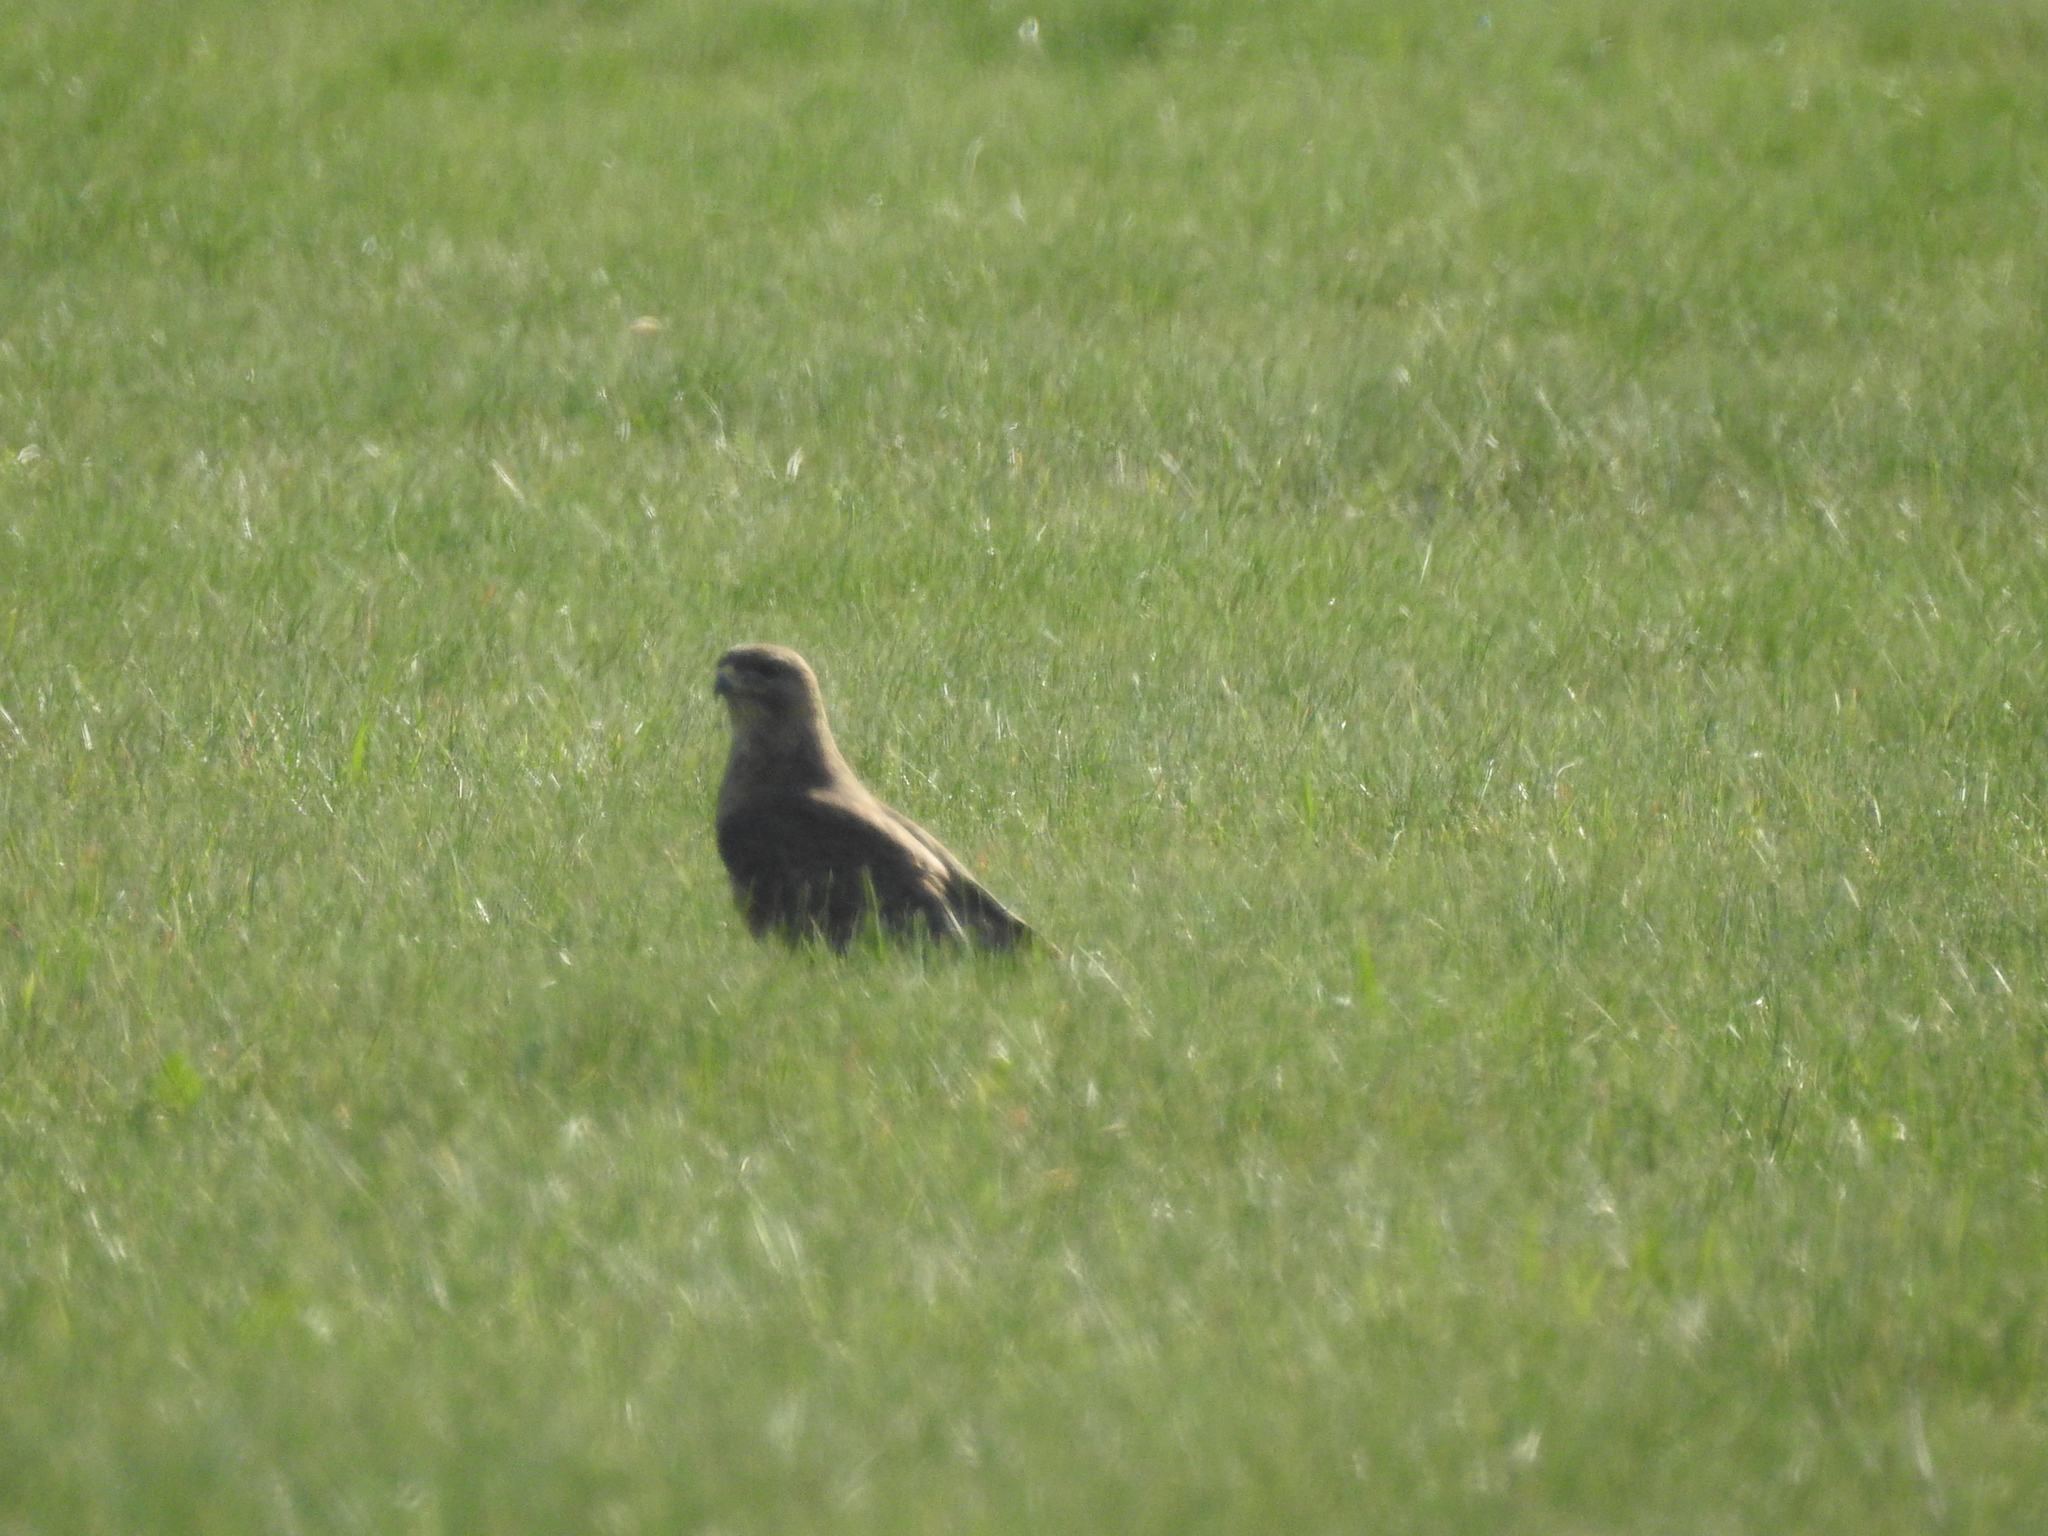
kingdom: Animalia
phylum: Chordata
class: Aves
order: Accipitriformes
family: Accipitridae
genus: Buteo
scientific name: Buteo buteo
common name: Common buzzard
